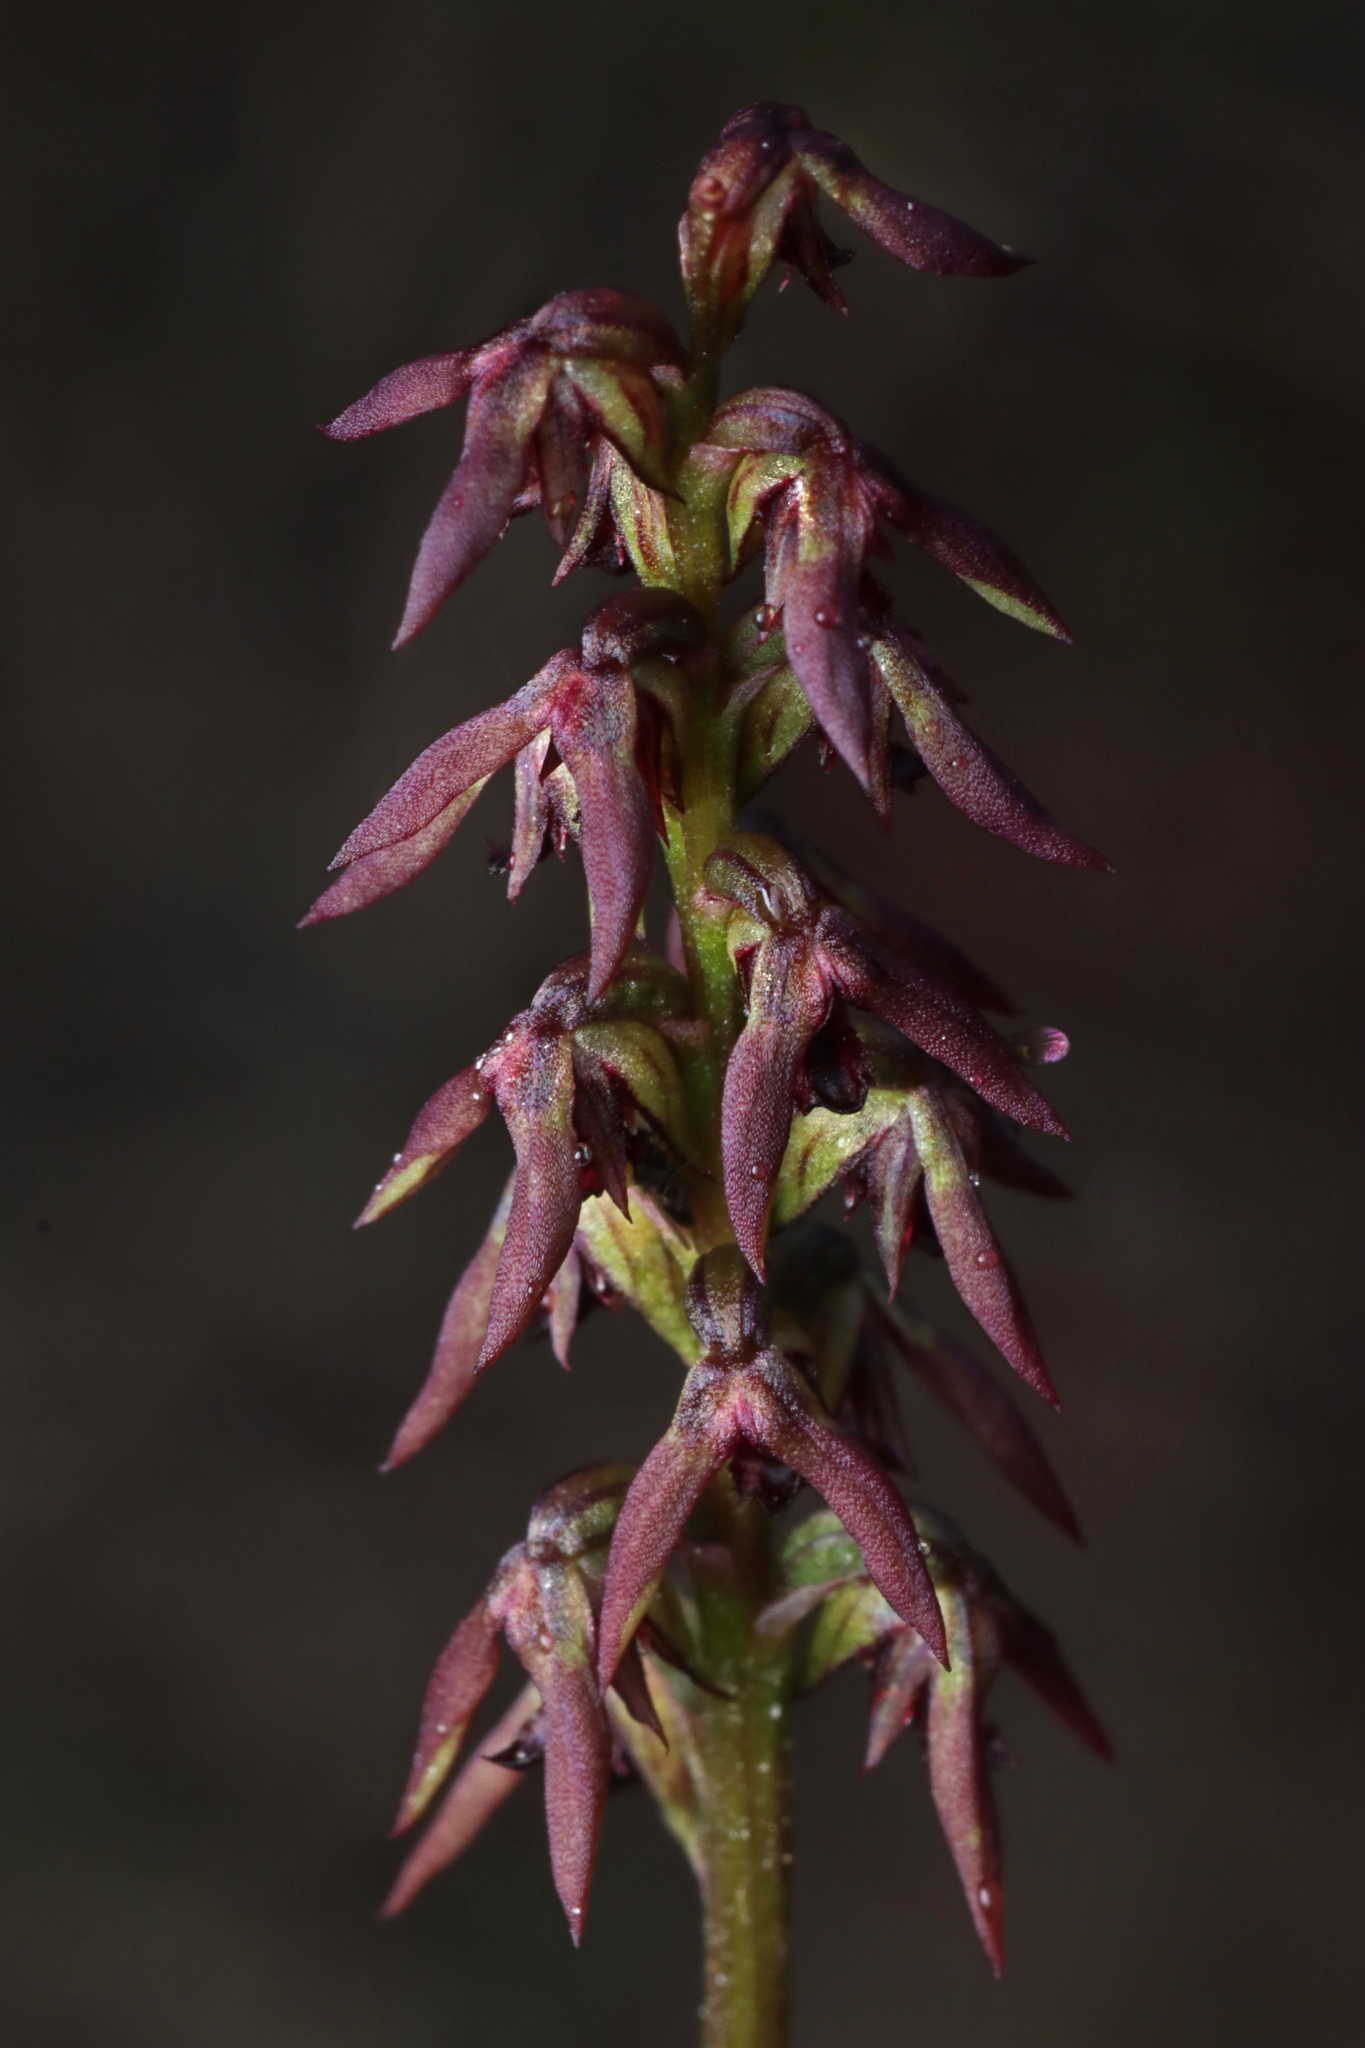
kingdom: Plantae
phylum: Tracheophyta
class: Liliopsida
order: Asparagales
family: Orchidaceae
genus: Genoplesium
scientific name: Genoplesium rufum
